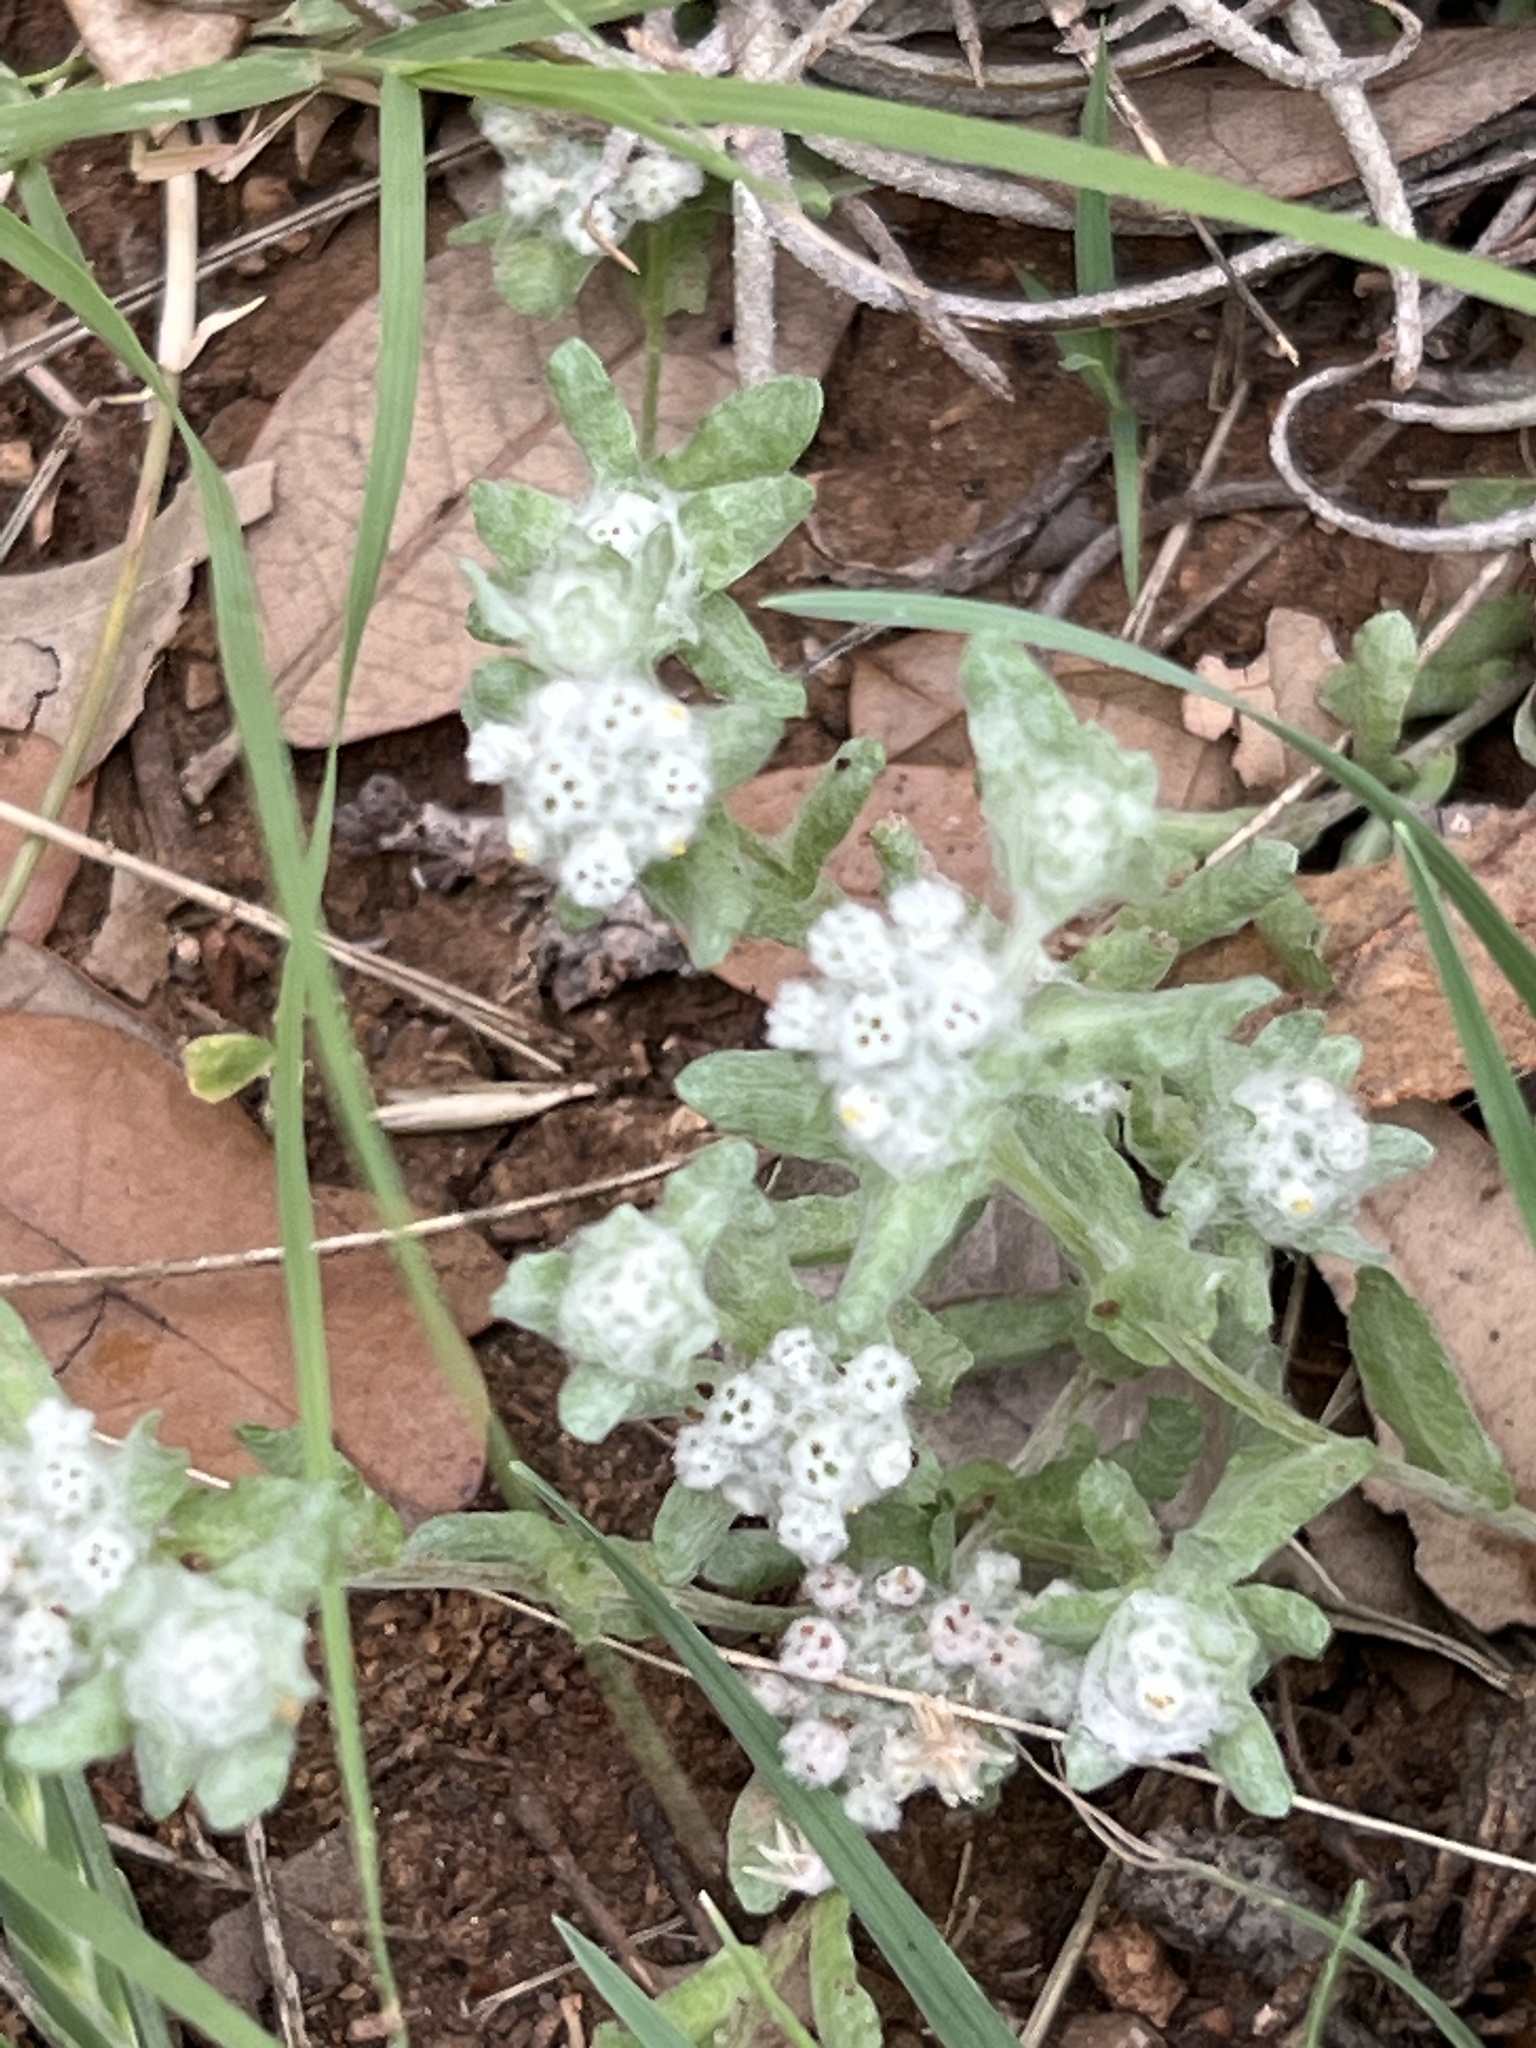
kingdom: Plantae
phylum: Tracheophyta
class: Magnoliopsida
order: Asterales
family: Asteraceae
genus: Diaperia
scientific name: Diaperia verna
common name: Many-stem rabbit-tobacco
